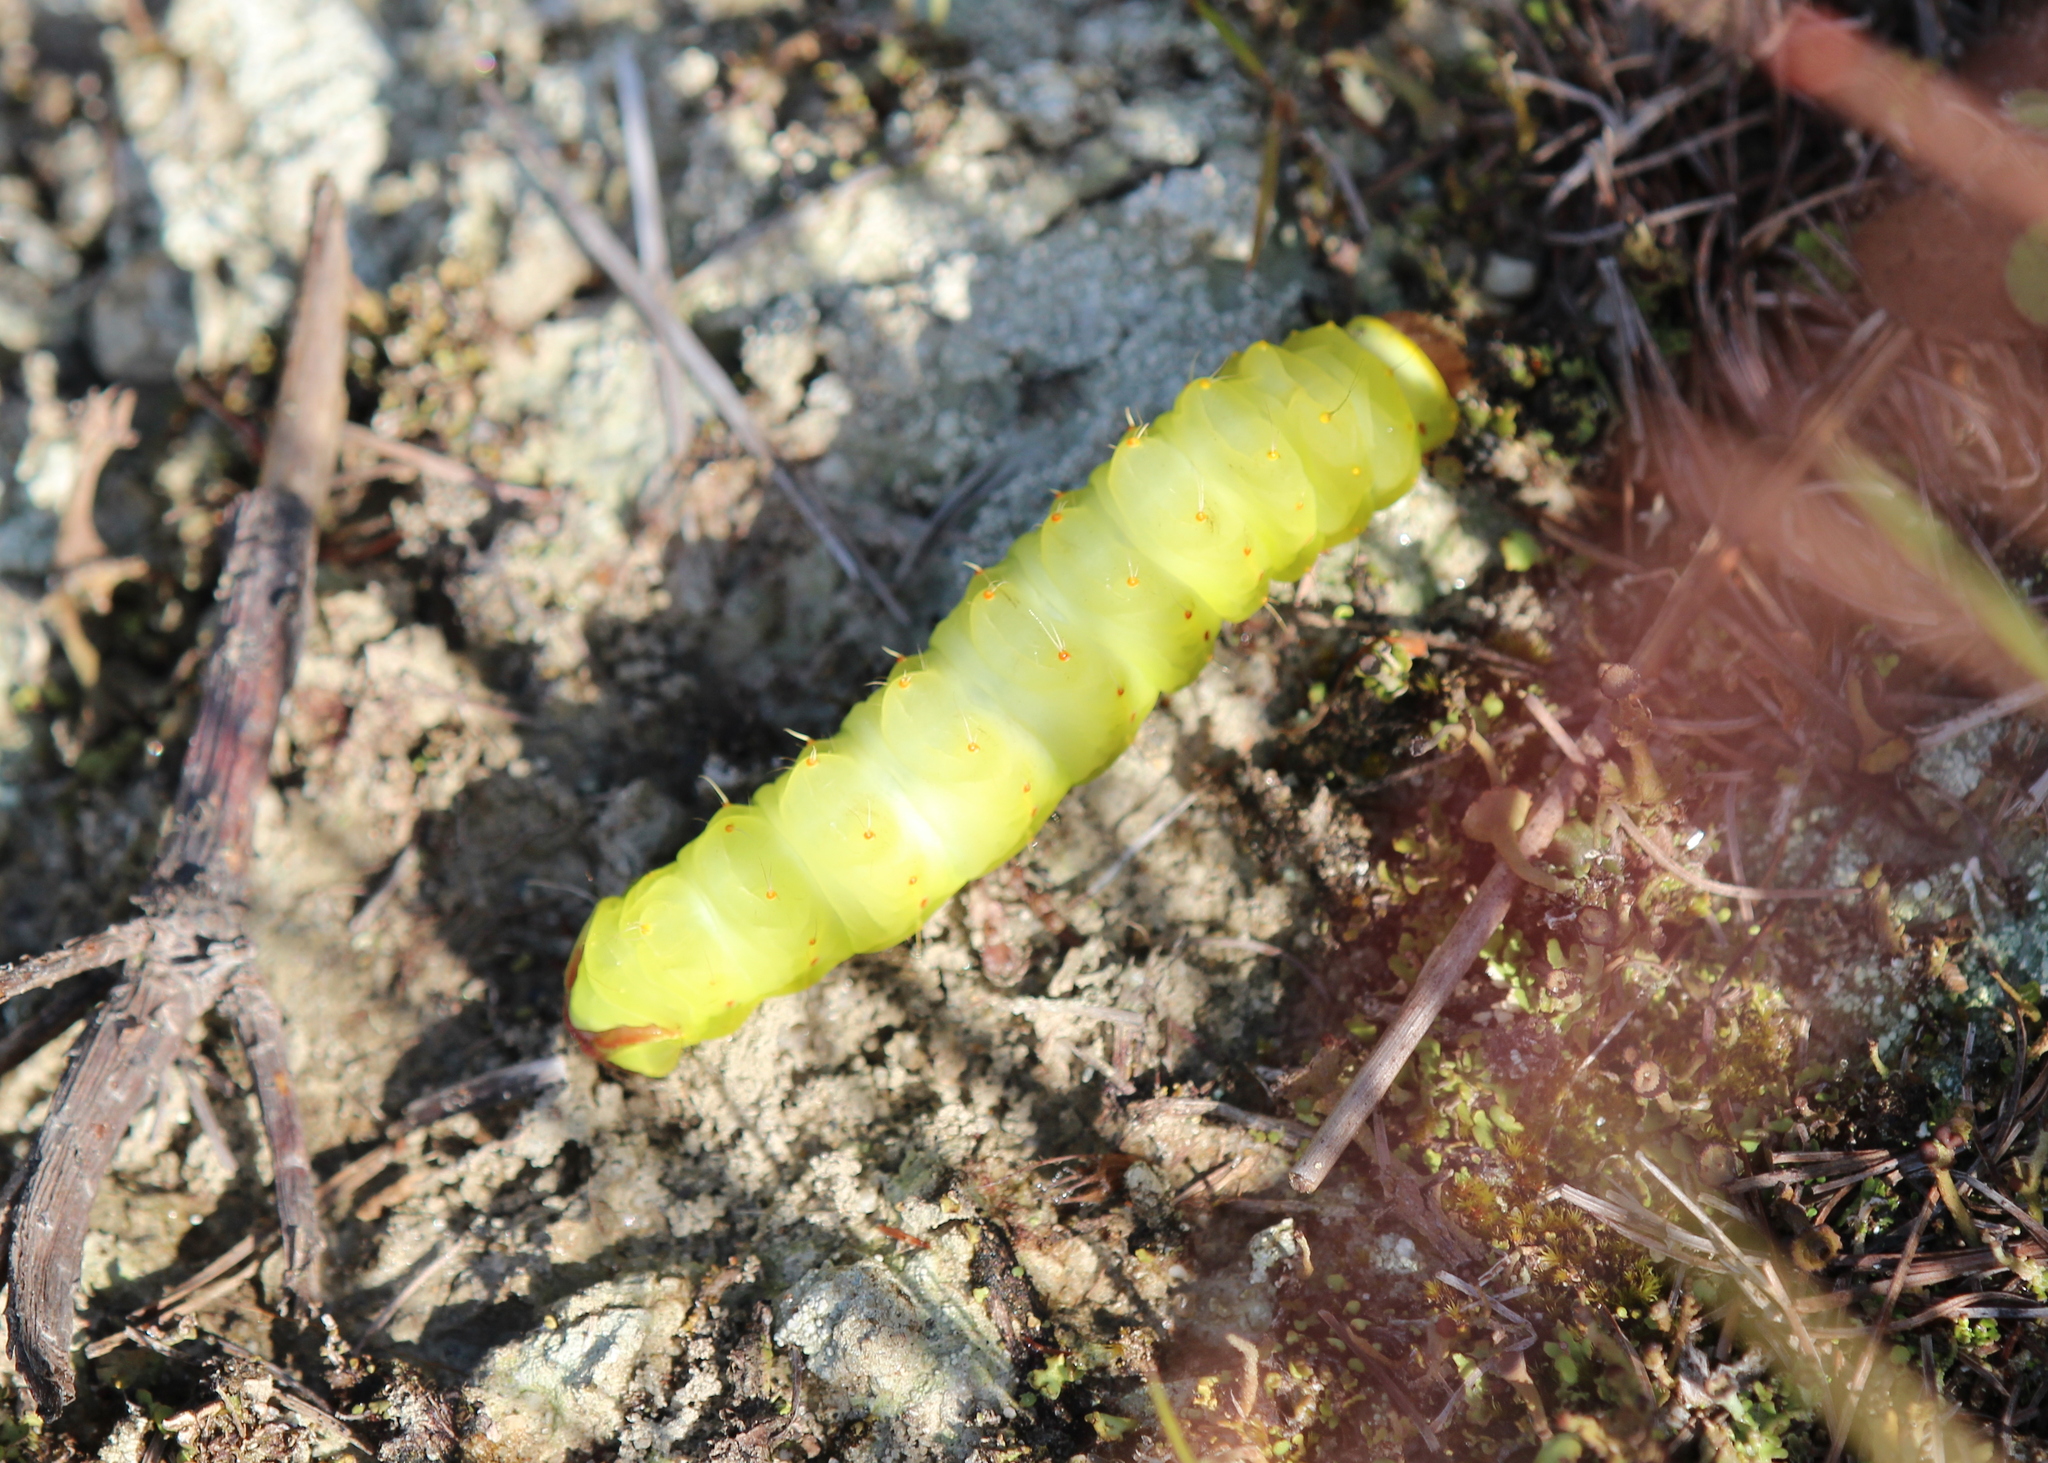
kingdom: Animalia
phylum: Arthropoda
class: Insecta
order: Lepidoptera
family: Saturniidae
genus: Antheraea
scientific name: Antheraea polyphemus
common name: Polyphemus moth
